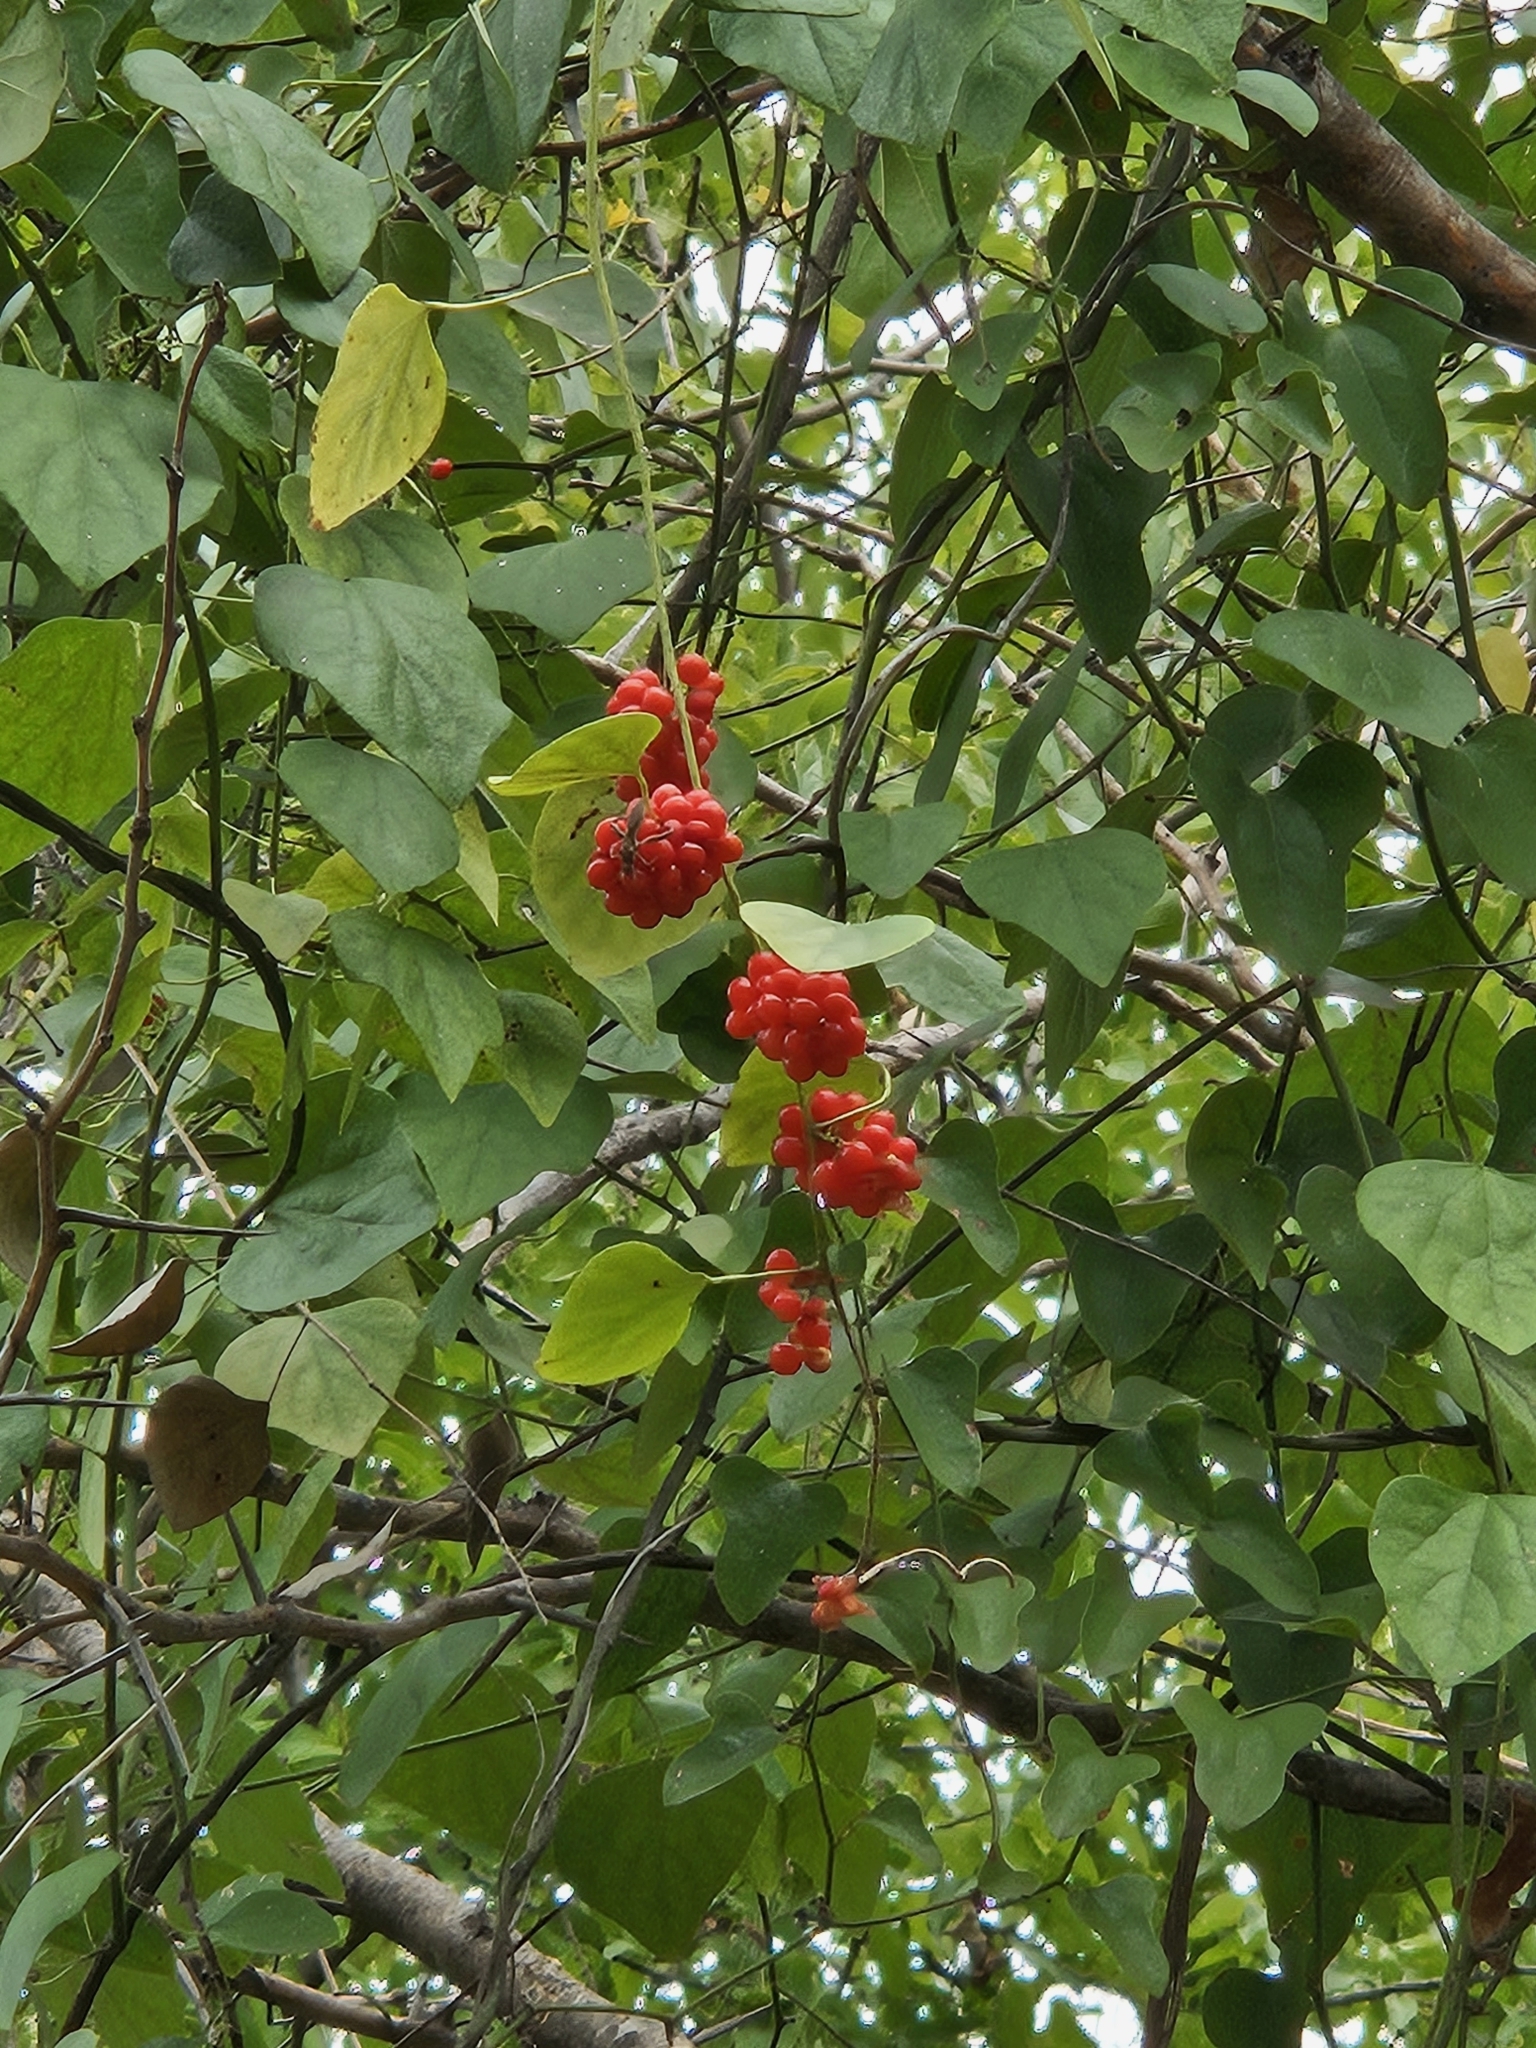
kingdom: Plantae
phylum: Tracheophyta
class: Magnoliopsida
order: Ranunculales
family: Menispermaceae
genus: Cocculus
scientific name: Cocculus carolinus
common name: Carolina moonseed
